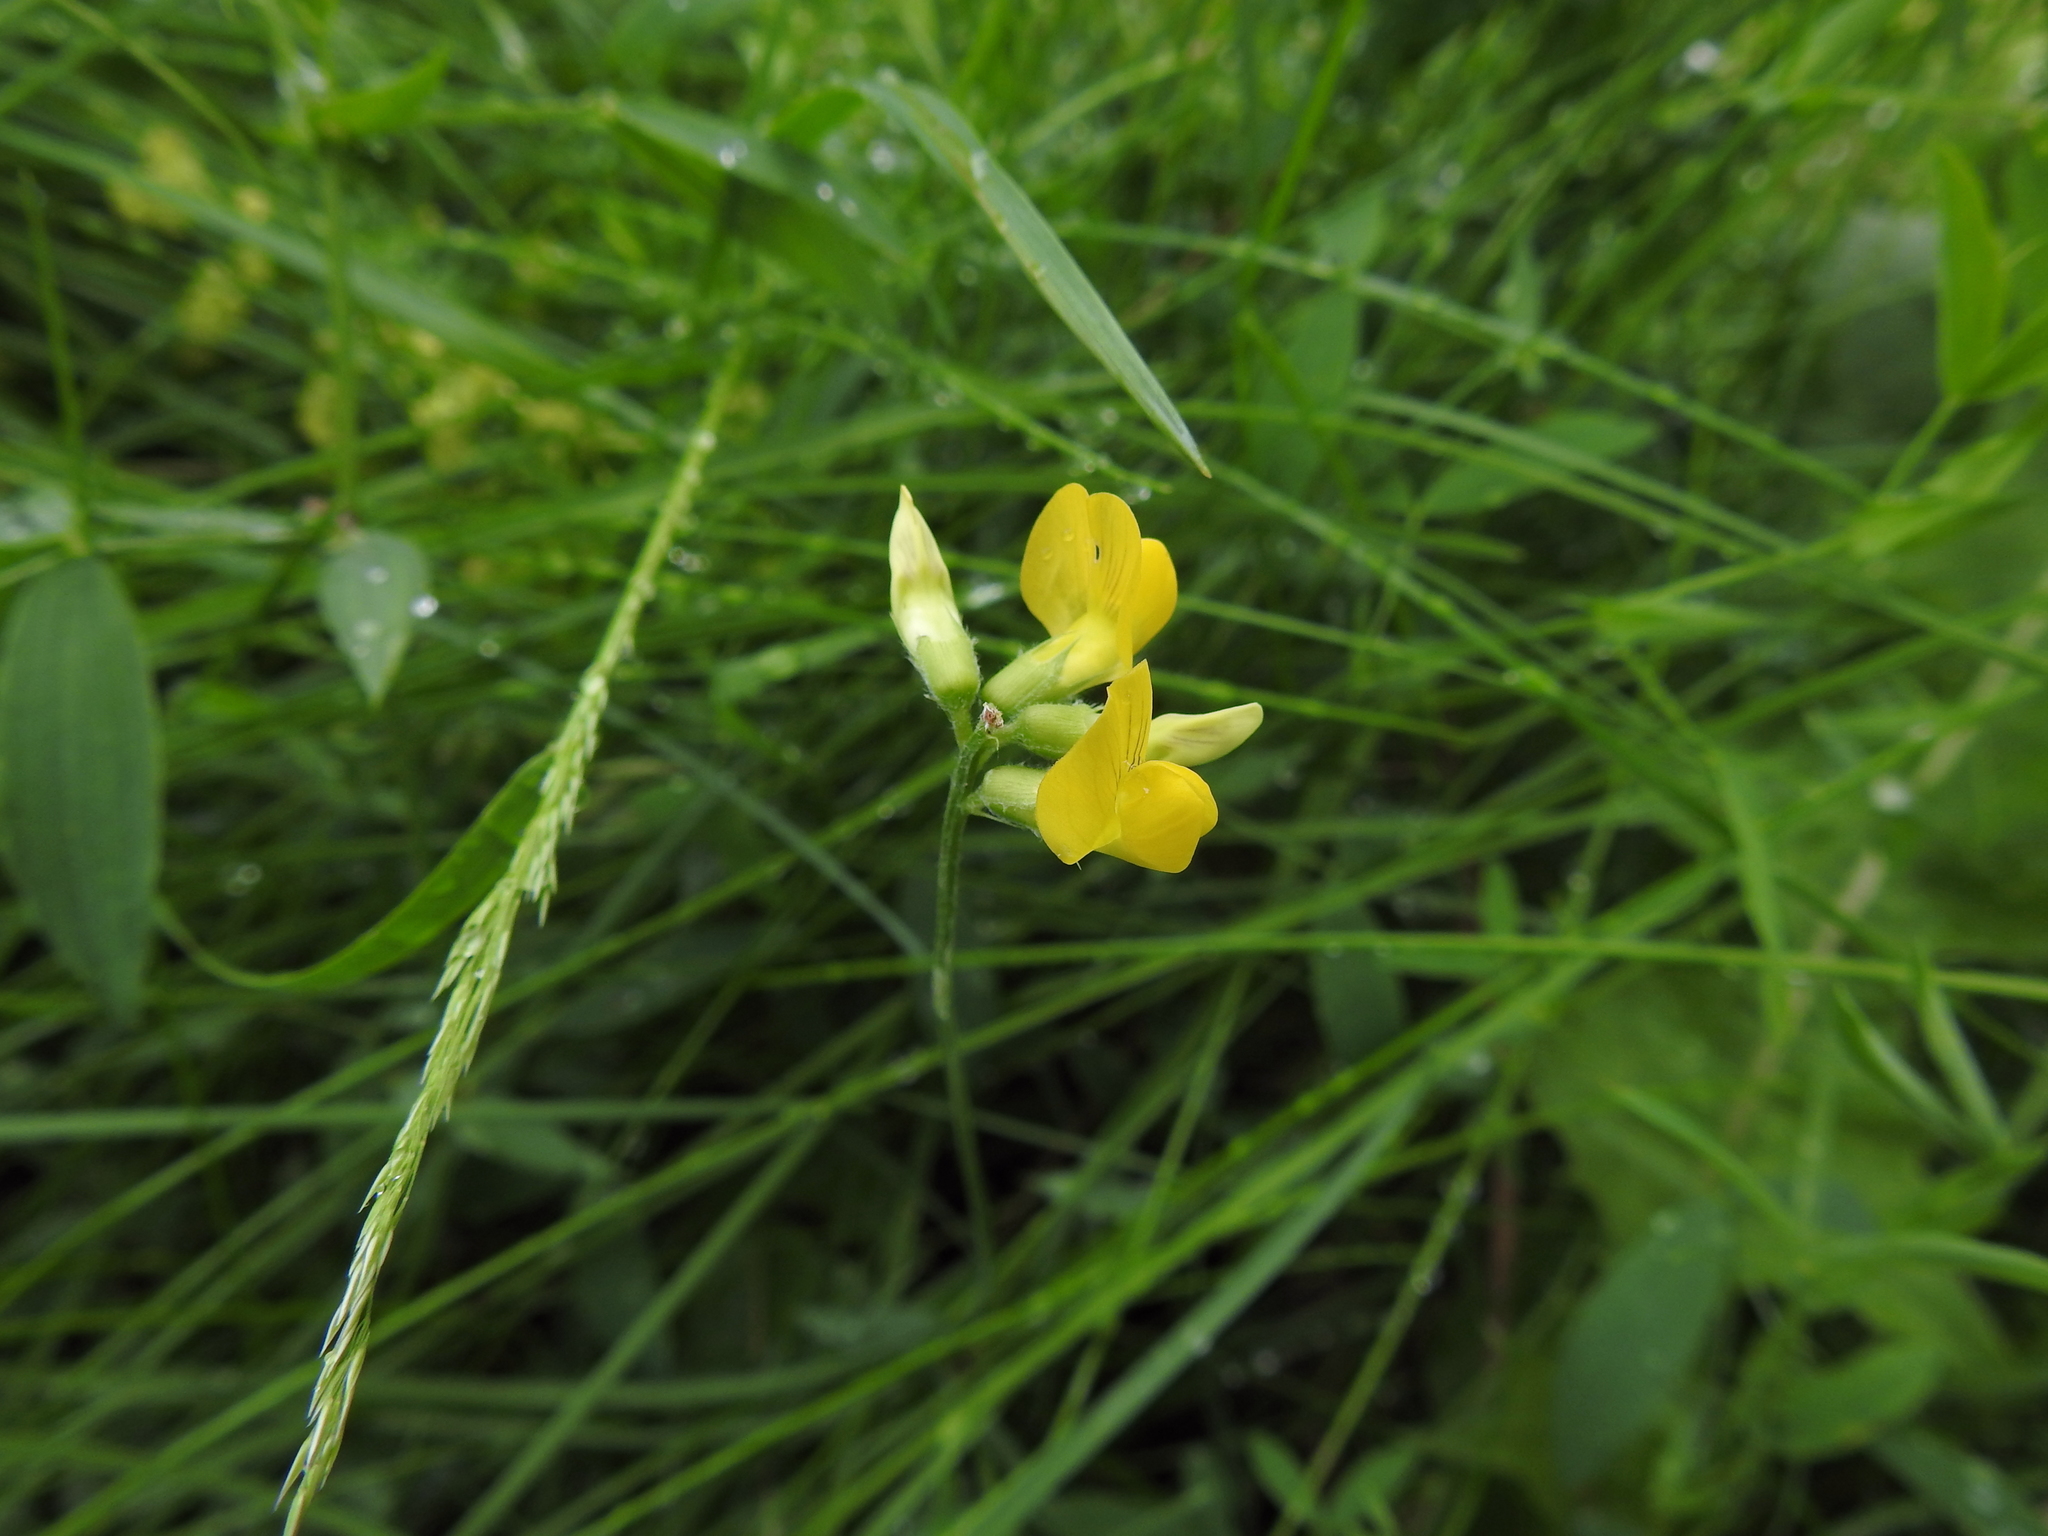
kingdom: Plantae
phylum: Tracheophyta
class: Magnoliopsida
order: Fabales
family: Fabaceae
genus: Lathyrus
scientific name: Lathyrus pratensis
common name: Meadow vetchling
